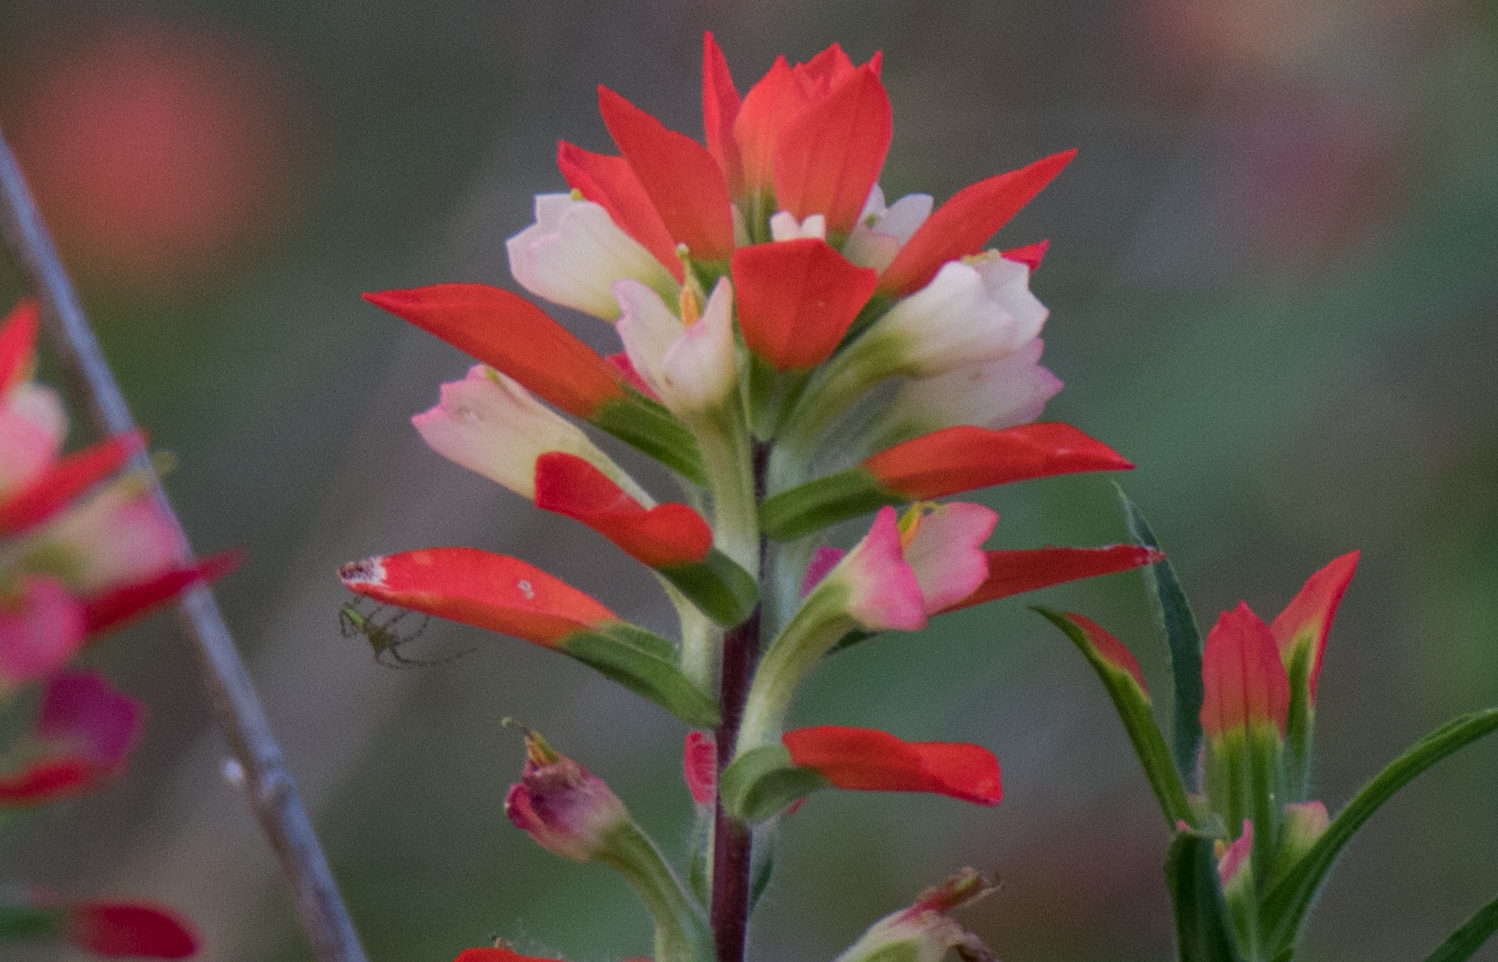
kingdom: Animalia
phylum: Arthropoda
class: Arachnida
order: Araneae
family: Oxyopidae
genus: Peucetia
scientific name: Peucetia viridans
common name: Lynx spiders
